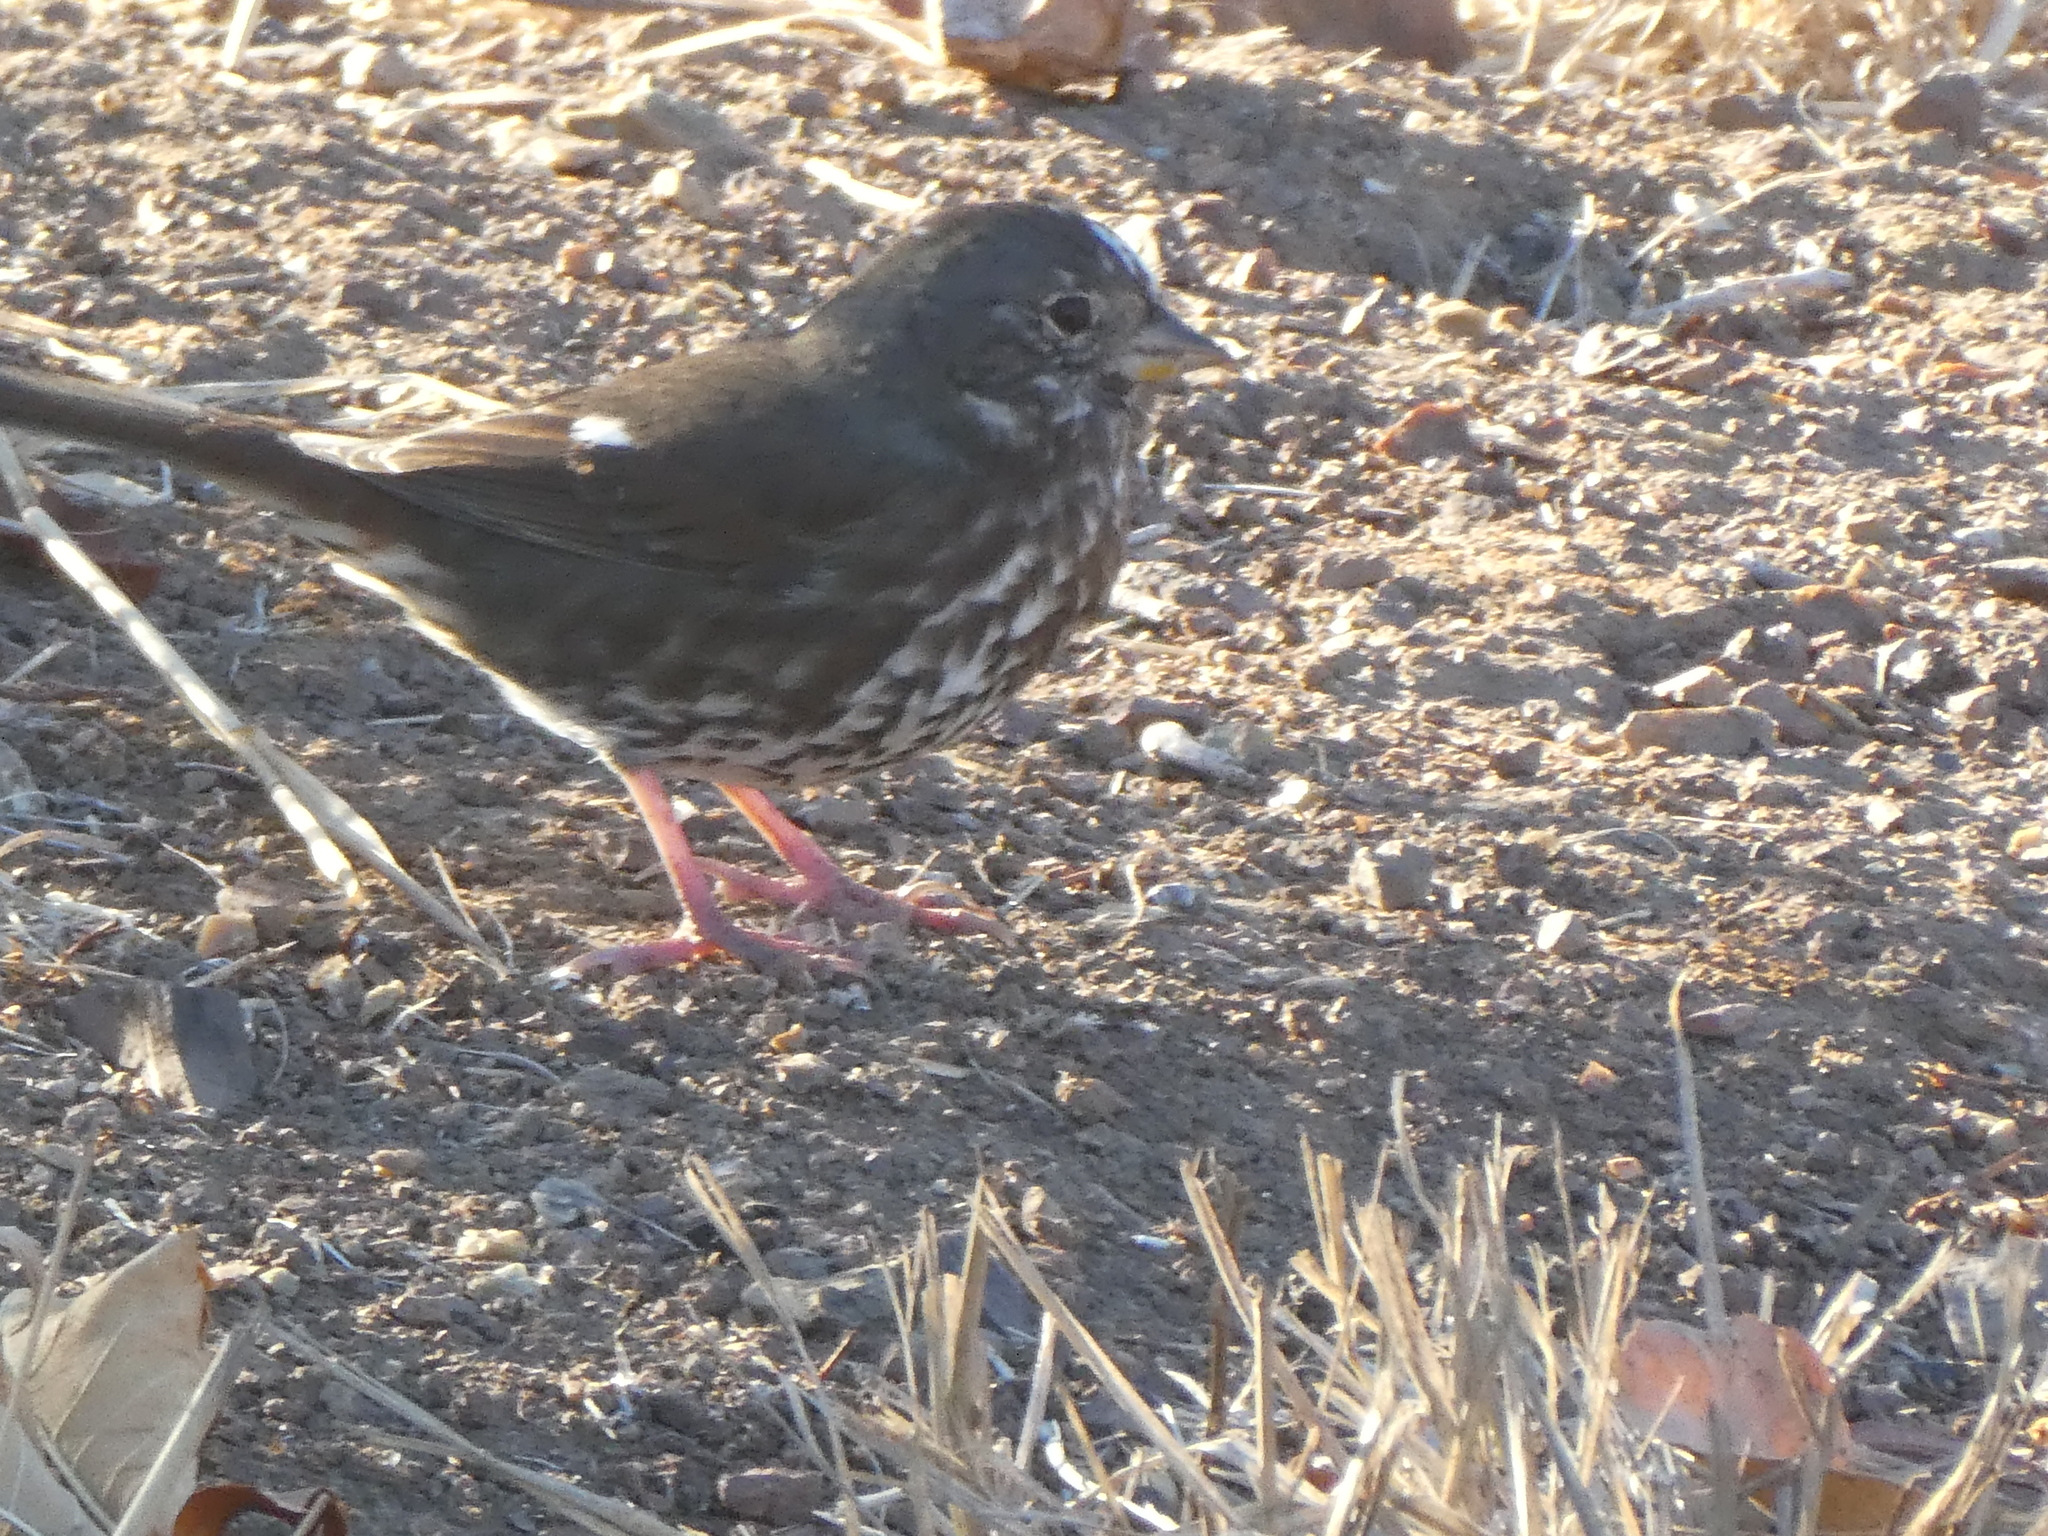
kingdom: Animalia
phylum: Chordata
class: Aves
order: Passeriformes
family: Passerellidae
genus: Passerella
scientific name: Passerella iliaca
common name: Fox sparrow
